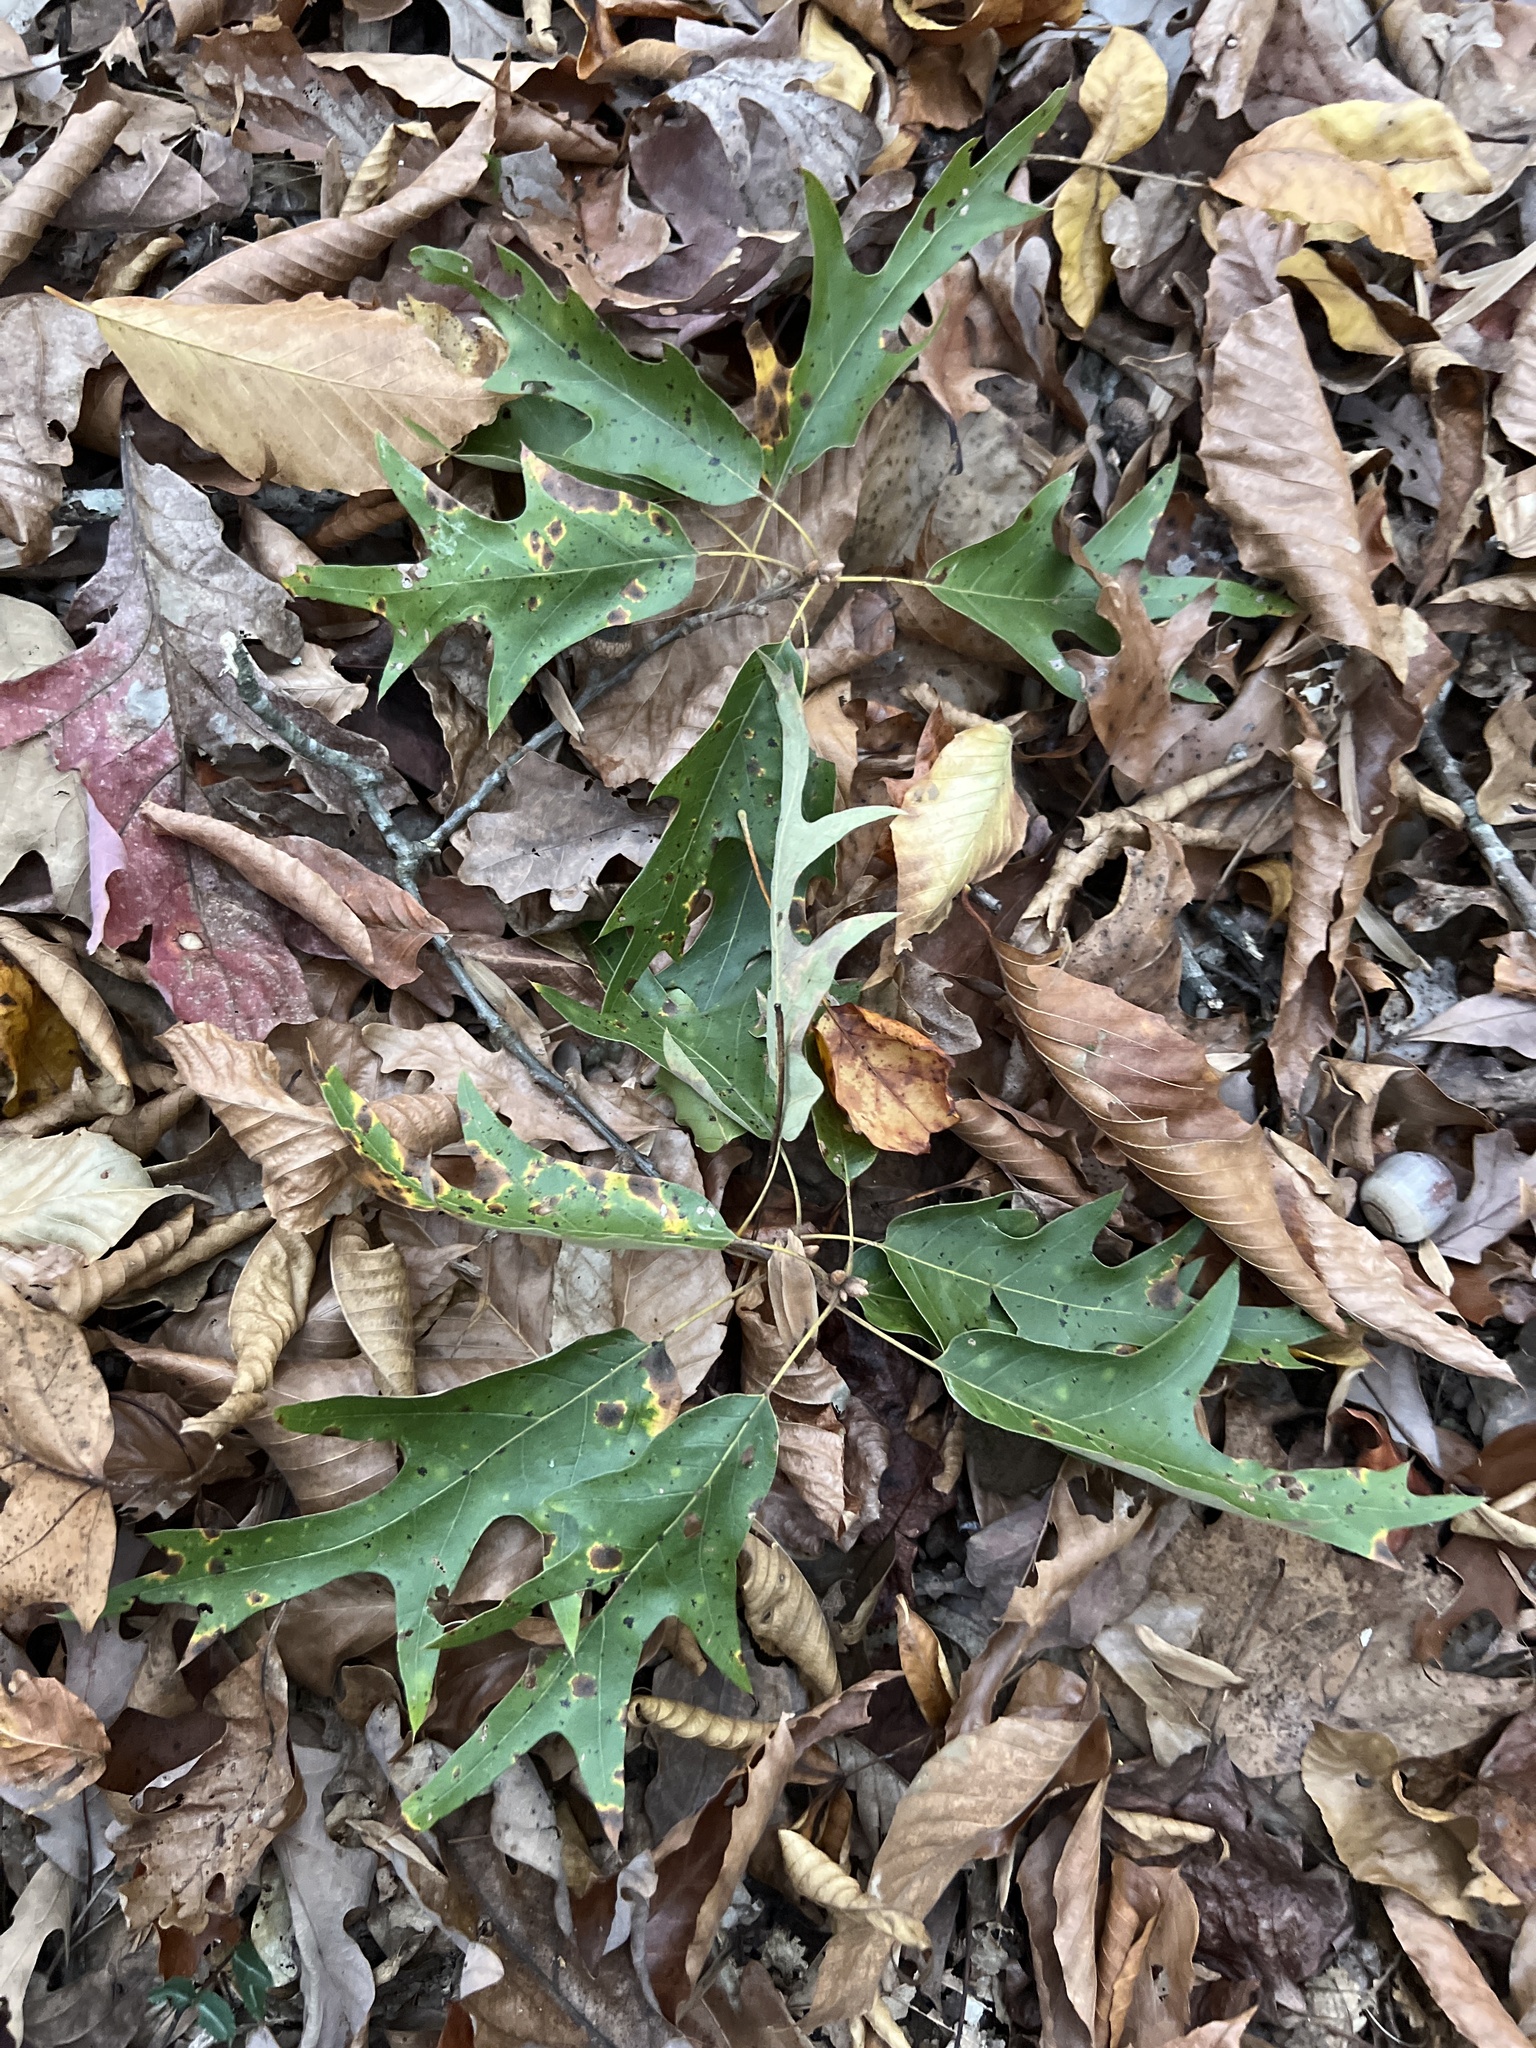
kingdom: Plantae
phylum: Tracheophyta
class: Magnoliopsida
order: Fagales
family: Fagaceae
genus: Quercus
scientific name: Quercus falcata
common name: Southern red oak
